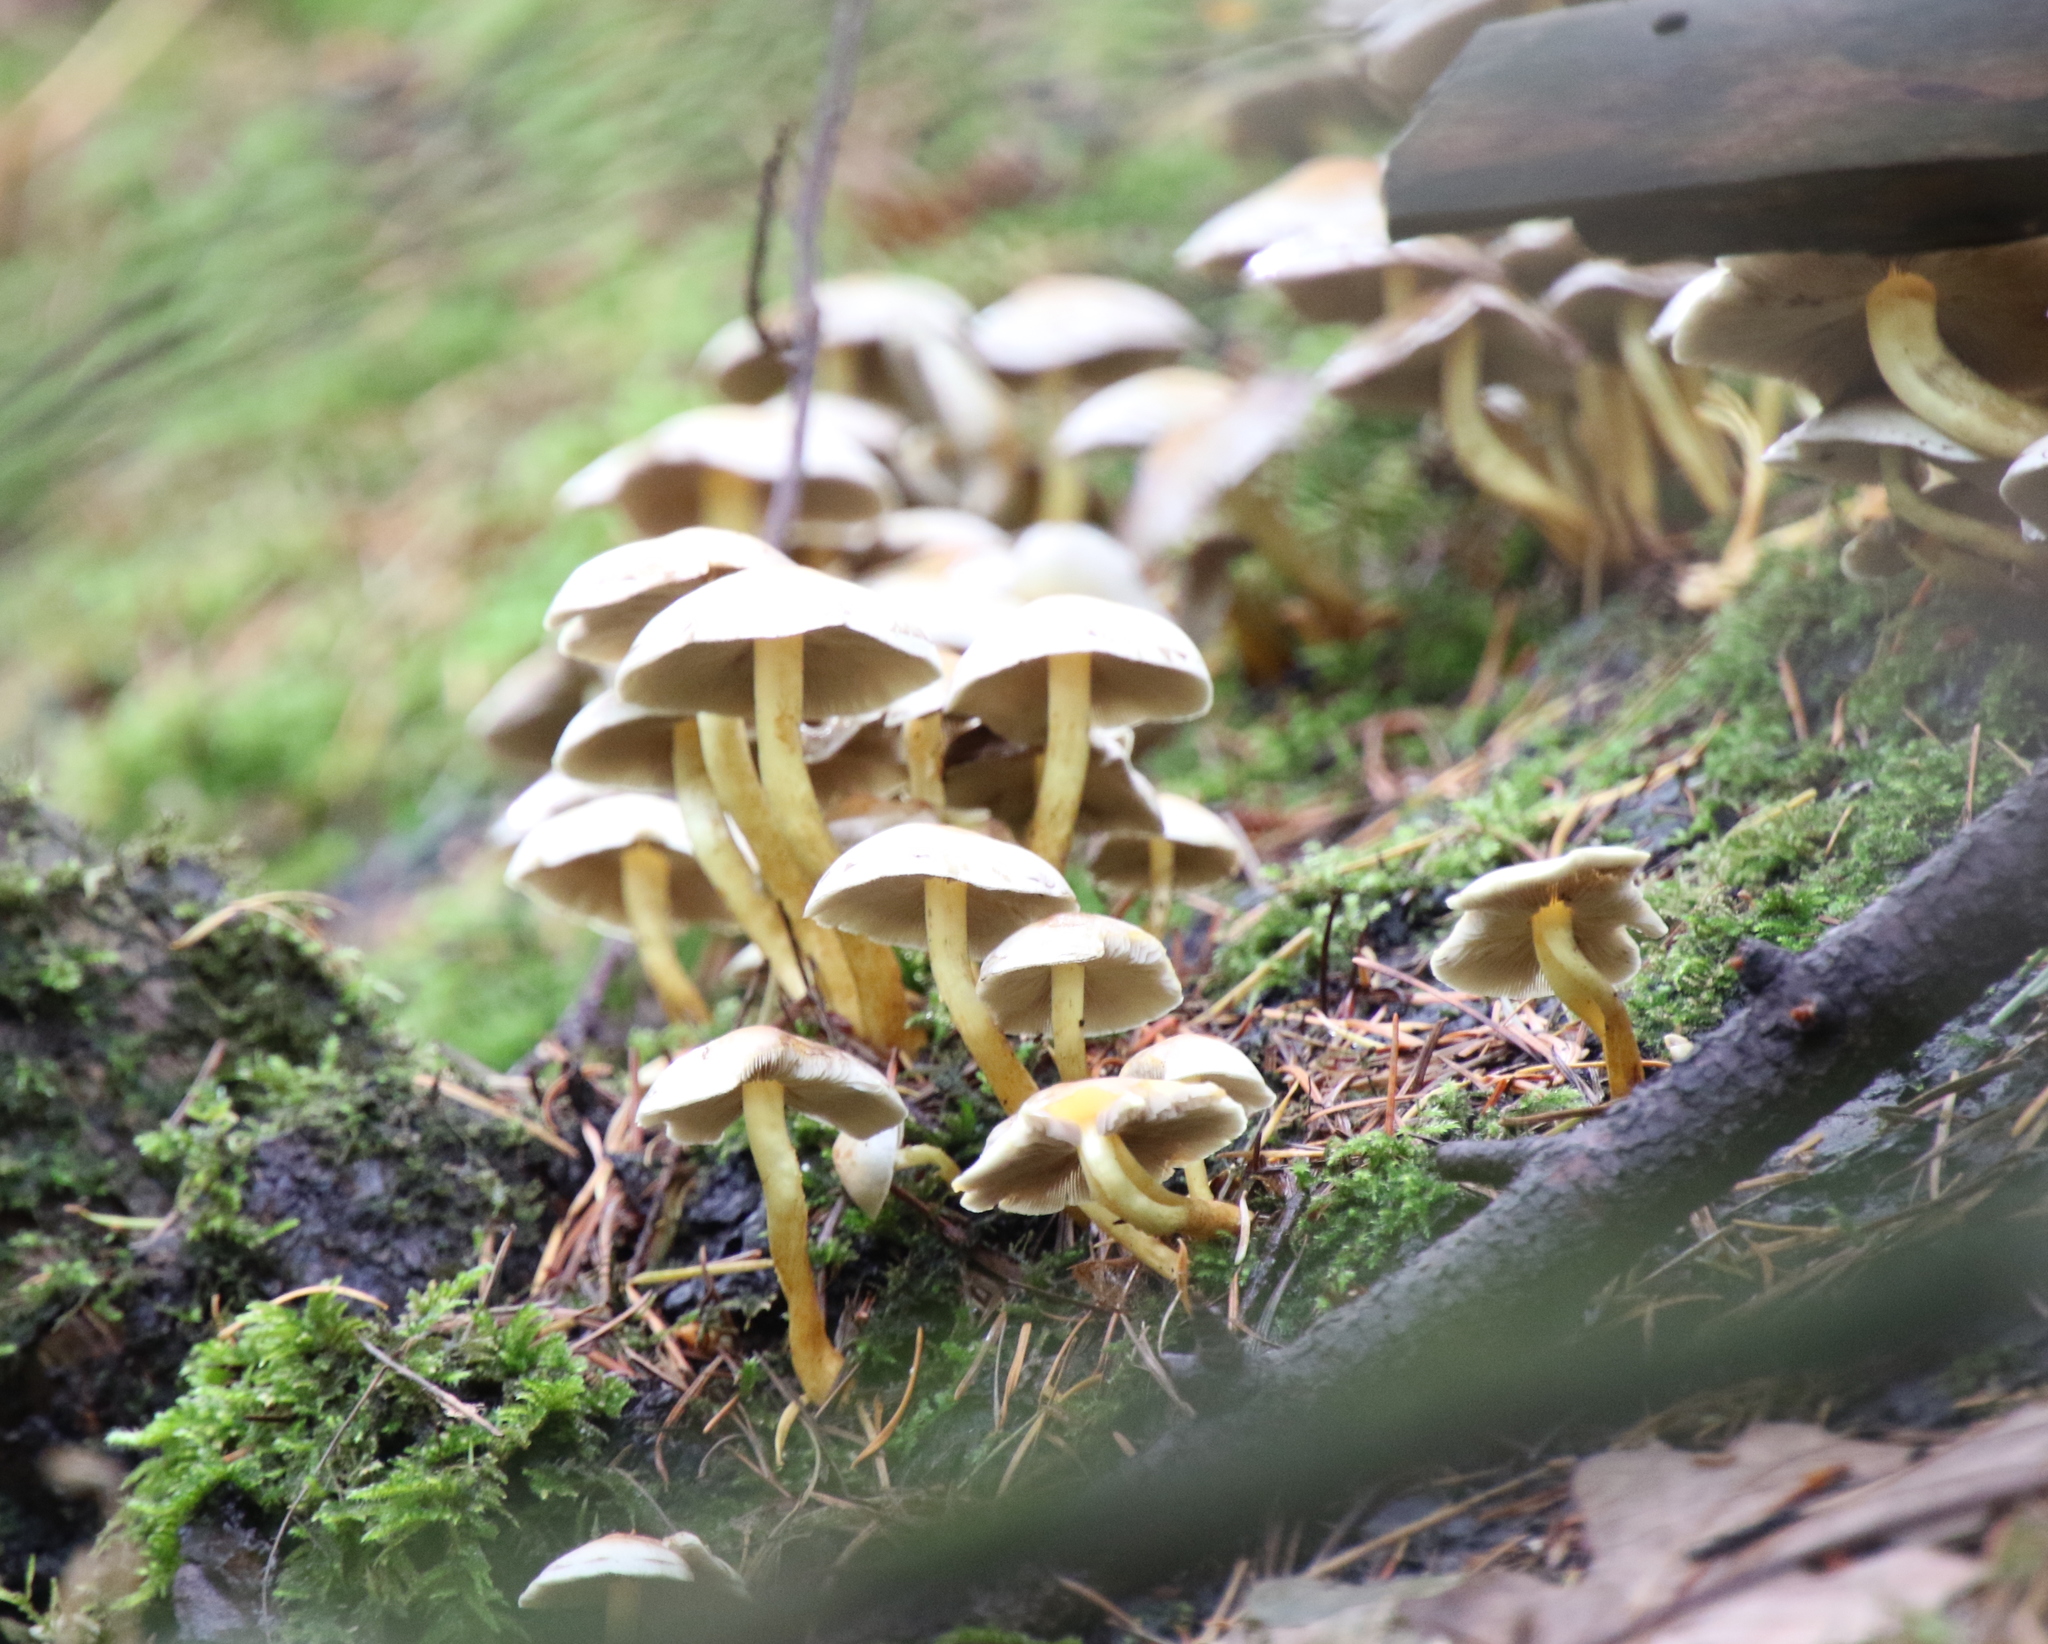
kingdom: Fungi
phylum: Basidiomycota
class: Agaricomycetes
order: Agaricales
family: Strophariaceae
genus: Hypholoma
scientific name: Hypholoma fasciculare
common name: Sulphur tuft
